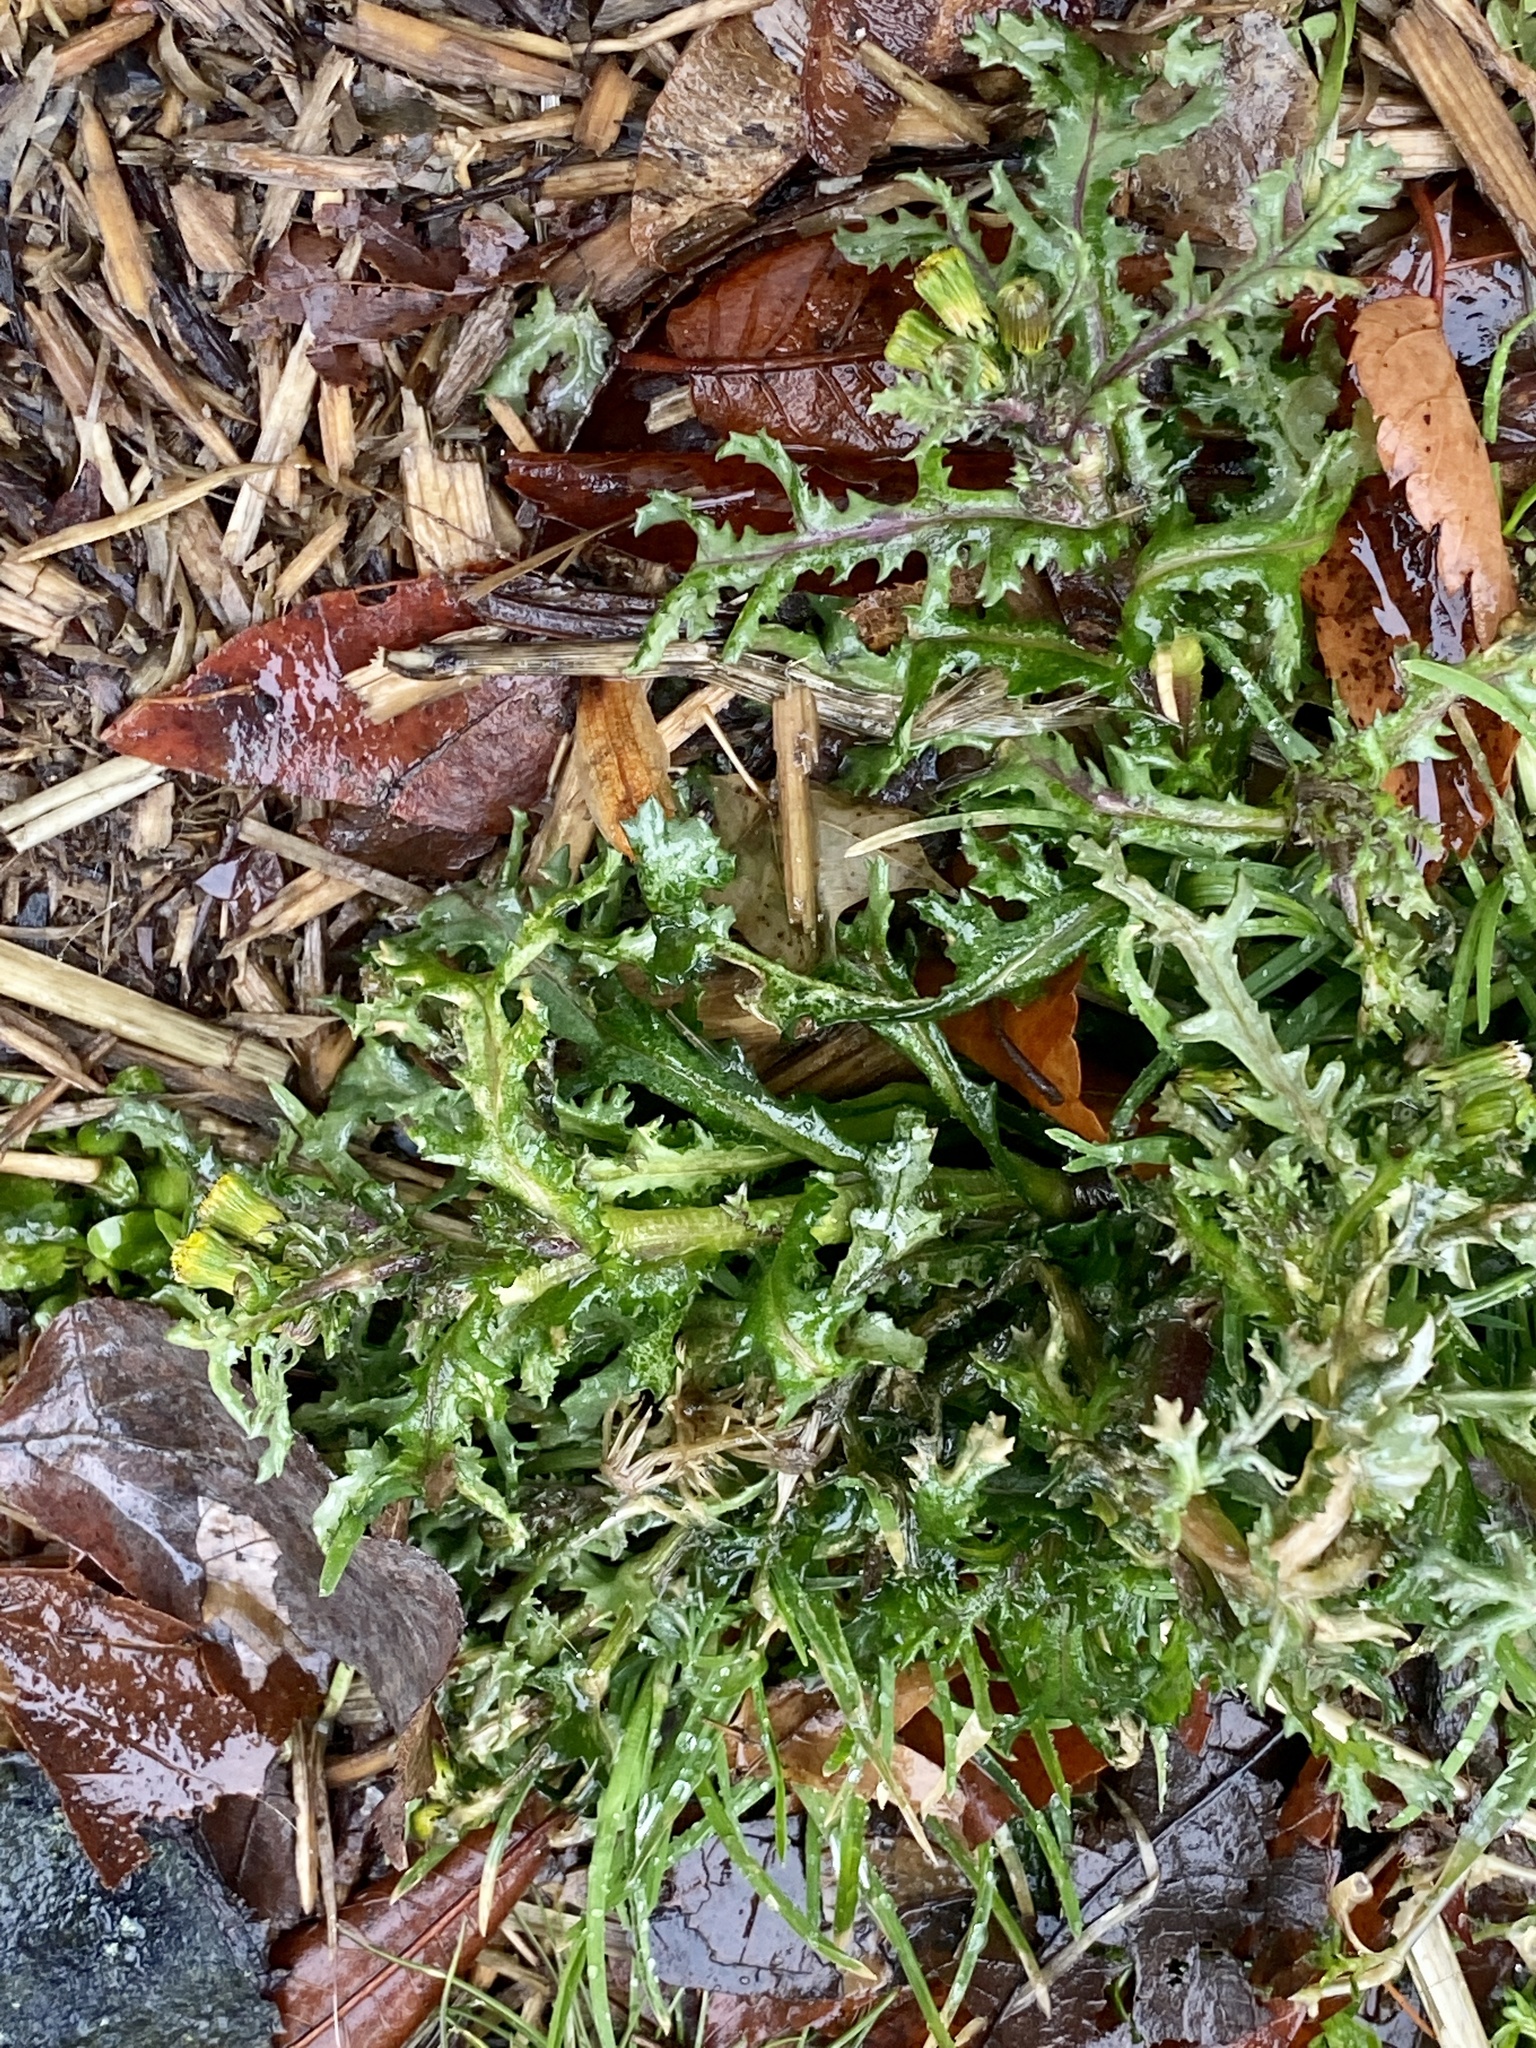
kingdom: Plantae
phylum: Tracheophyta
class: Magnoliopsida
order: Asterales
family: Asteraceae
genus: Senecio
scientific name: Senecio vulgaris
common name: Old-man-in-the-spring
